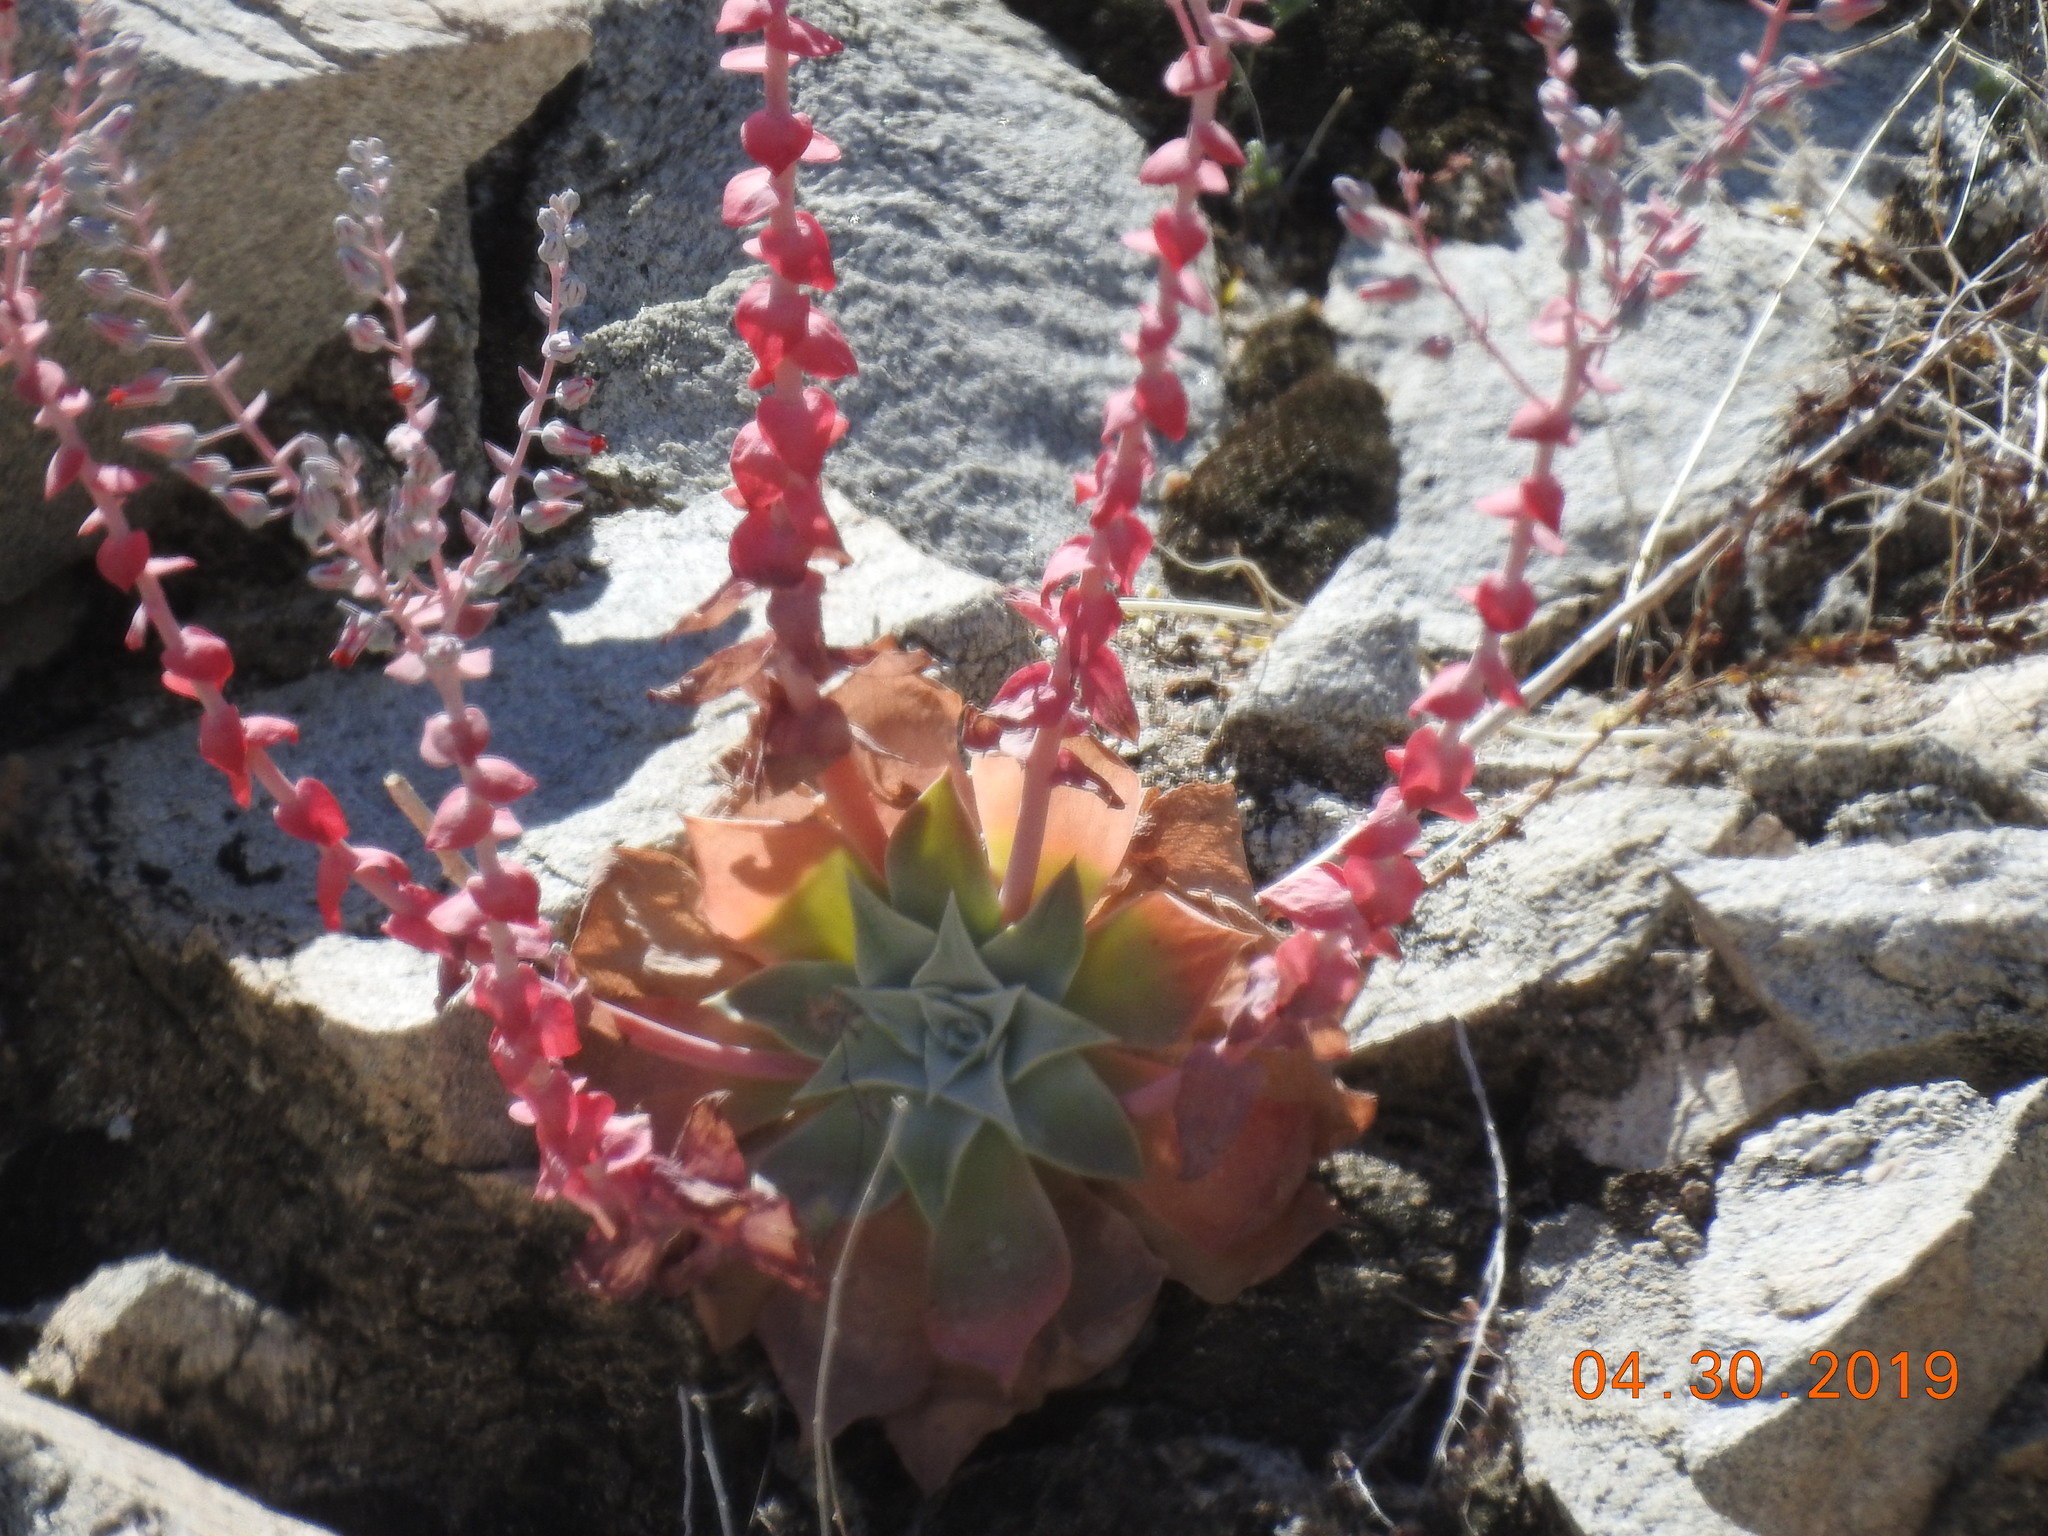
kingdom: Plantae
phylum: Tracheophyta
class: Magnoliopsida
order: Saxifragales
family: Crassulaceae
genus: Dudleya
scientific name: Dudleya arizonica
